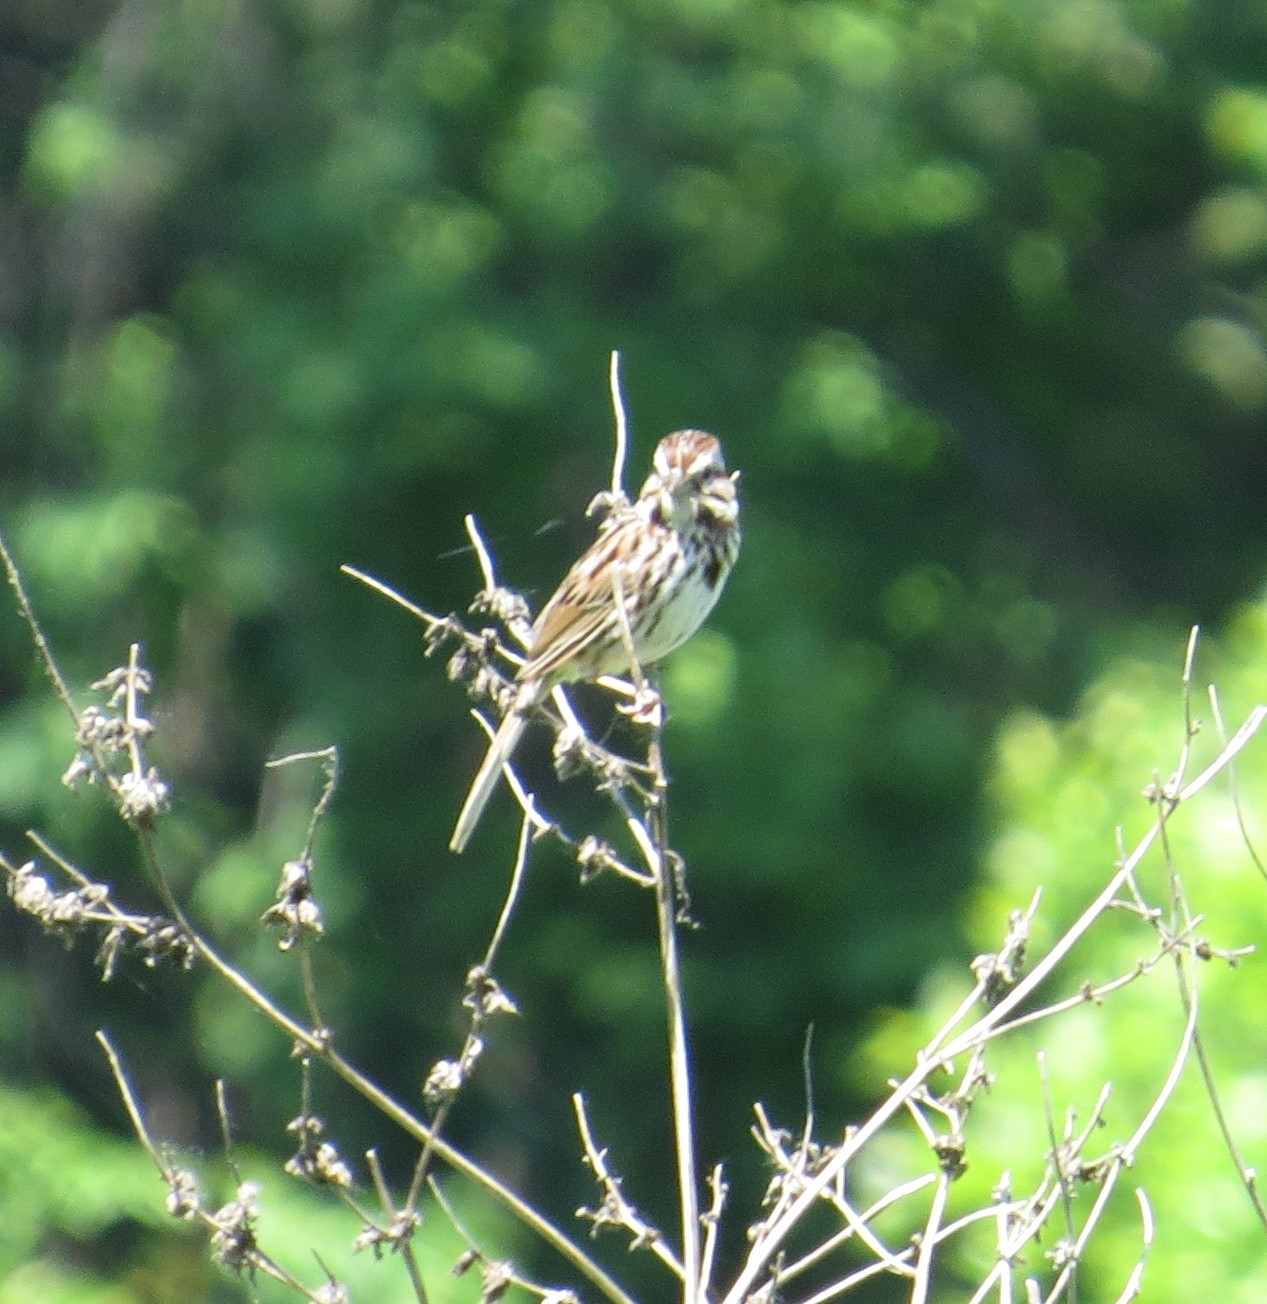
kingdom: Animalia
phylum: Chordata
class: Aves
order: Passeriformes
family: Passerellidae
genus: Melospiza
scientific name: Melospiza melodia
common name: Song sparrow
